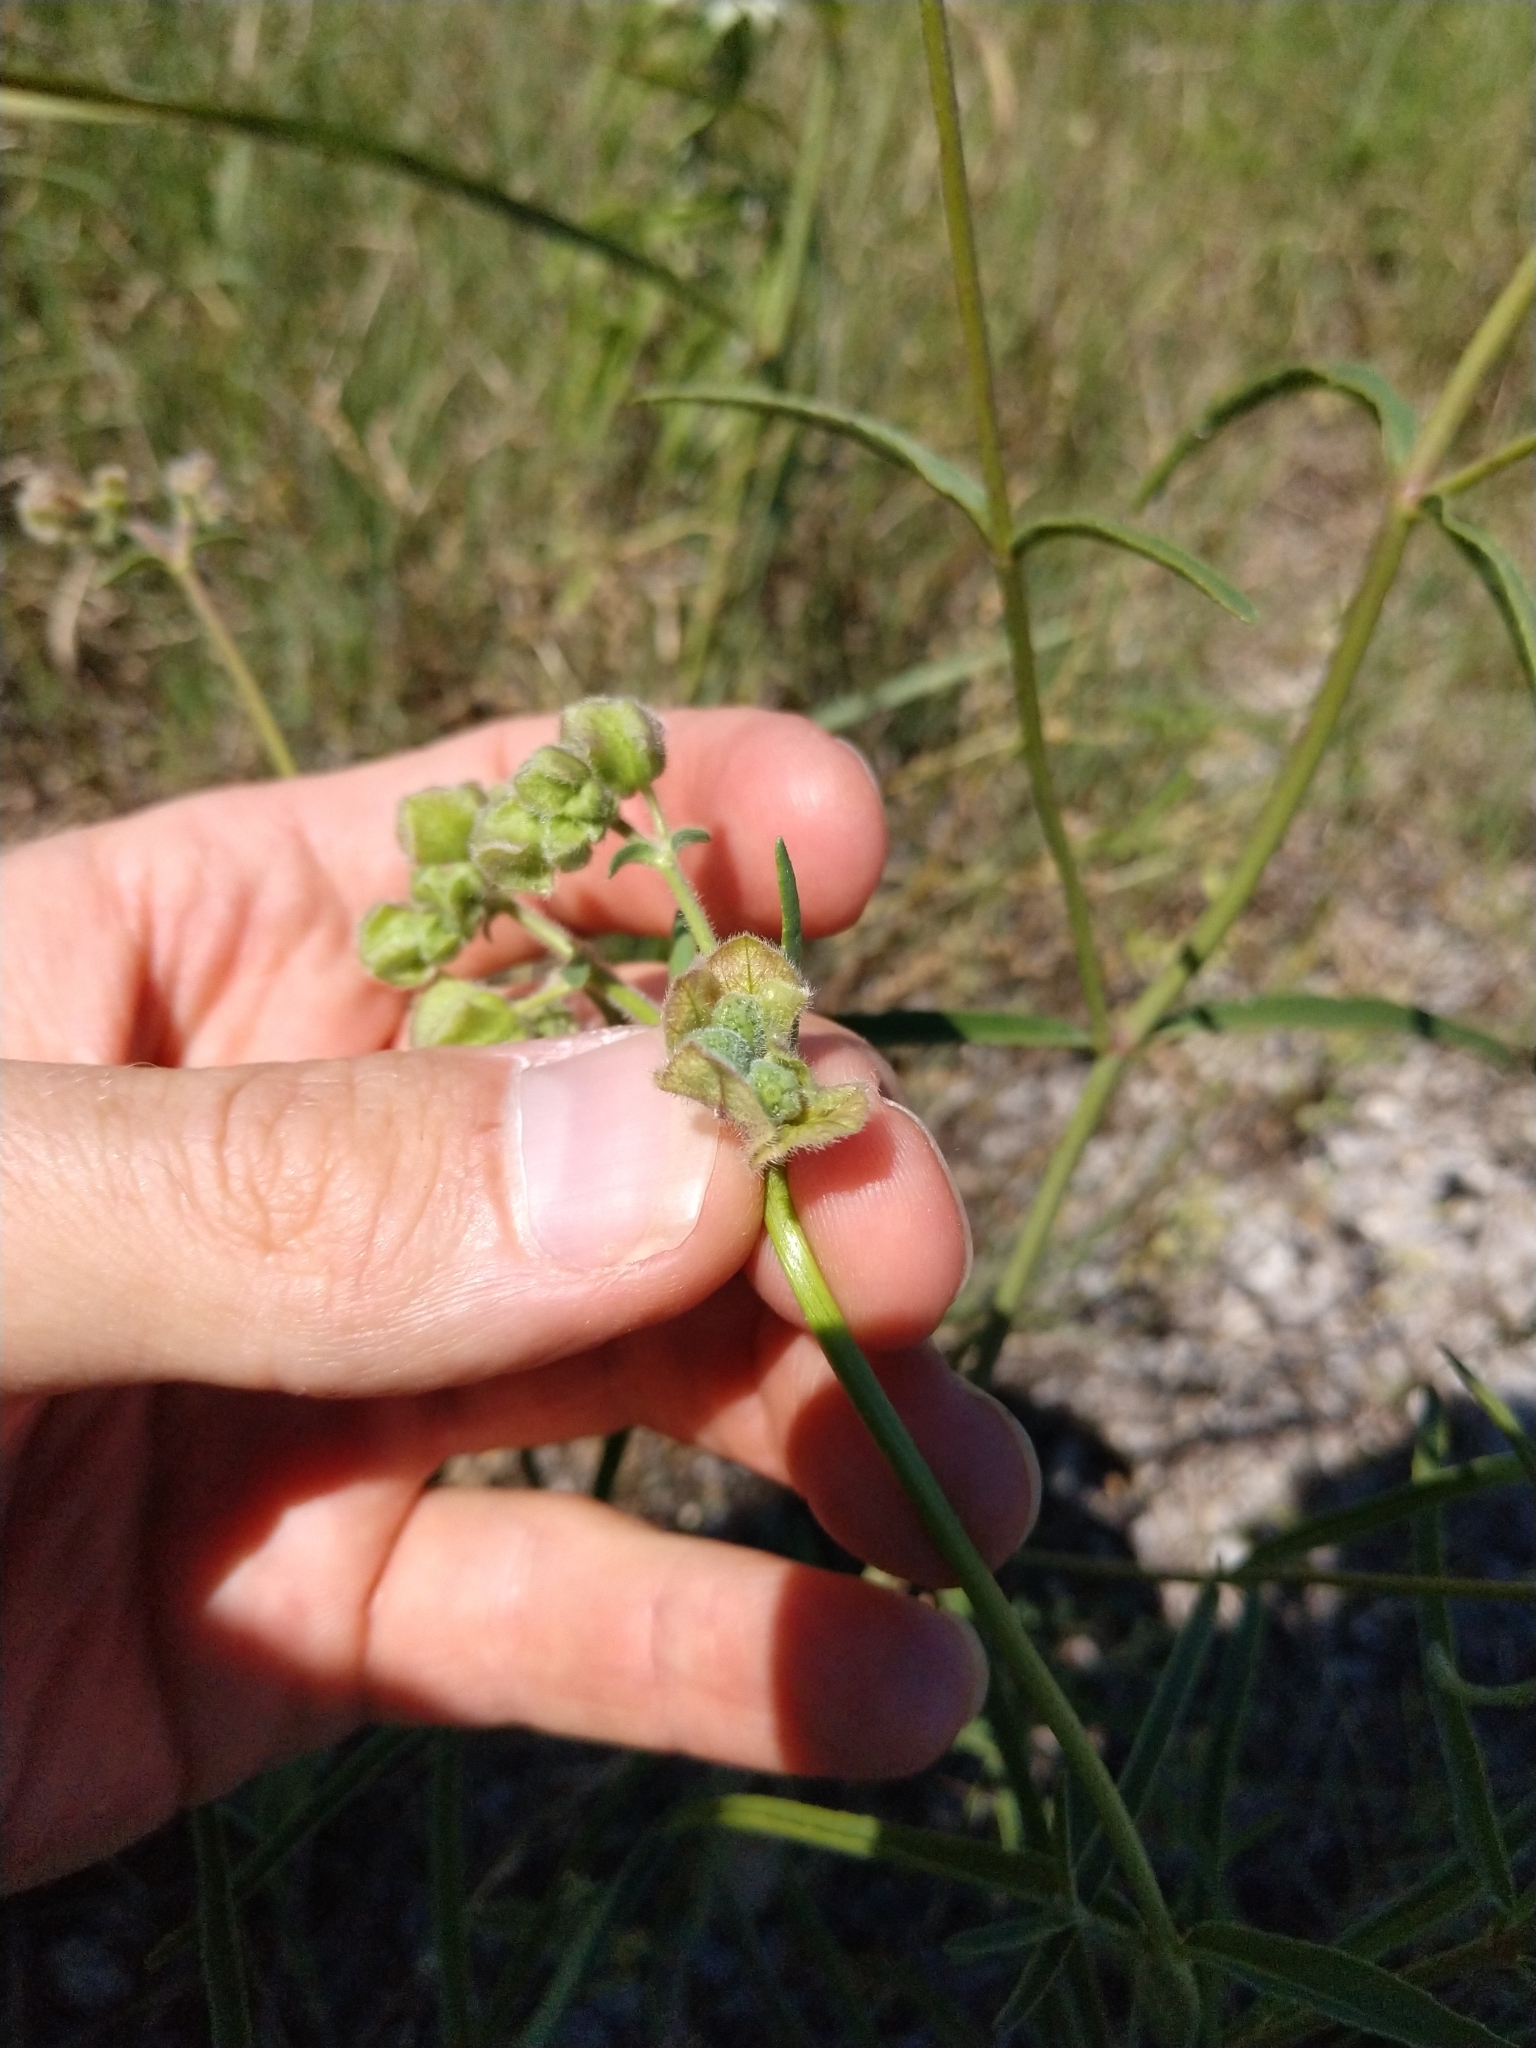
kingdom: Plantae
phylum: Tracheophyta
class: Magnoliopsida
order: Caryophyllales
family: Nyctaginaceae
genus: Mirabilis
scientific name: Mirabilis albida
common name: Hairy four-o'clock
